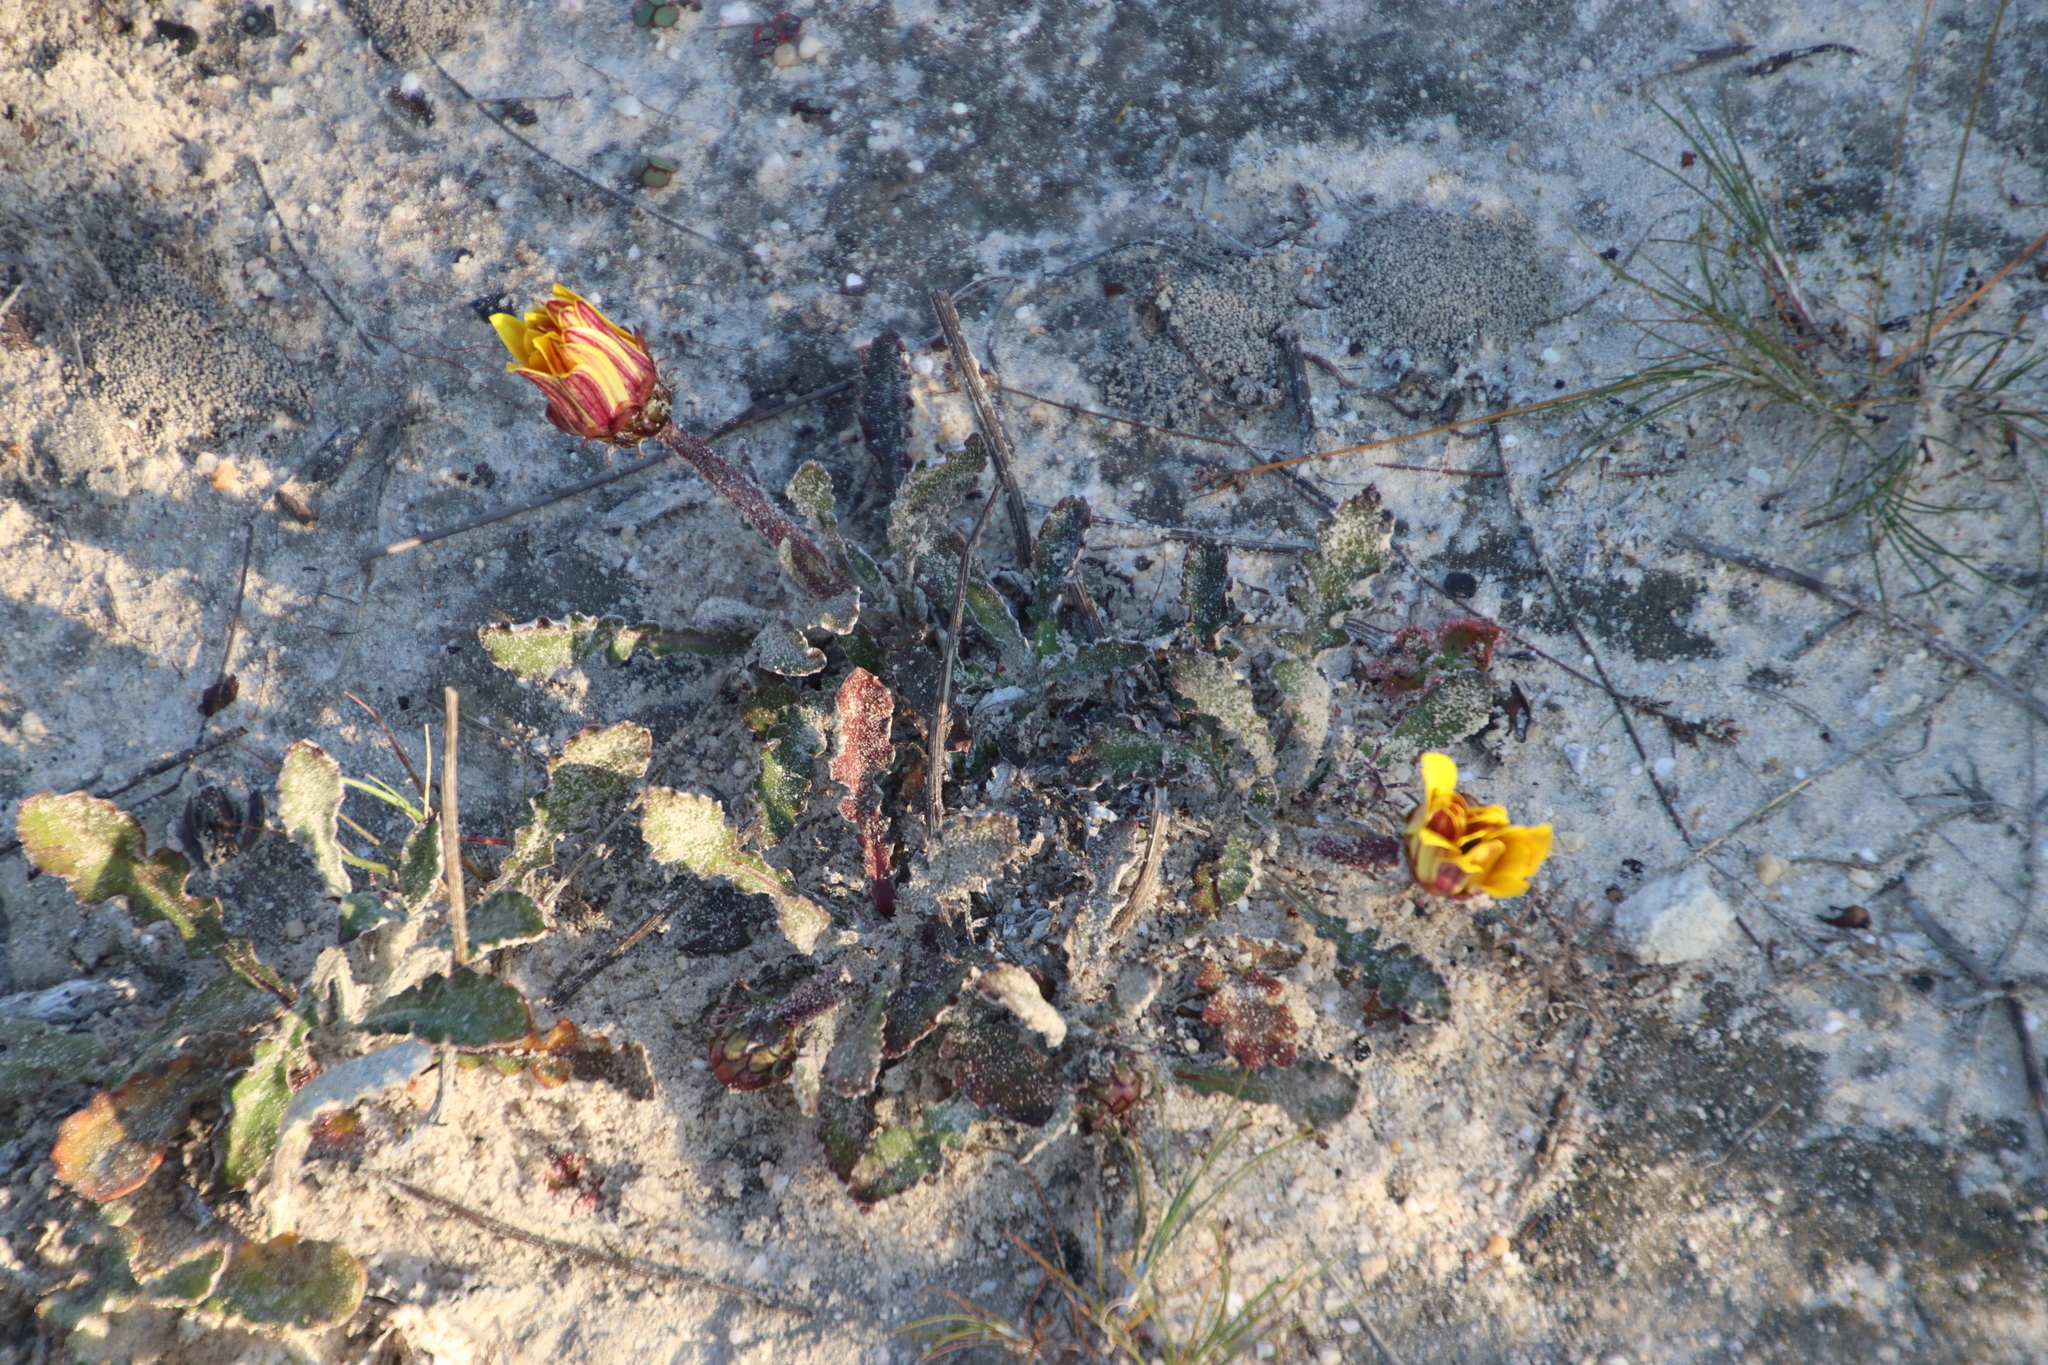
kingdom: Plantae
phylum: Tracheophyta
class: Magnoliopsida
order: Asterales
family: Asteraceae
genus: Haplocarpha
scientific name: Haplocarpha lanata
